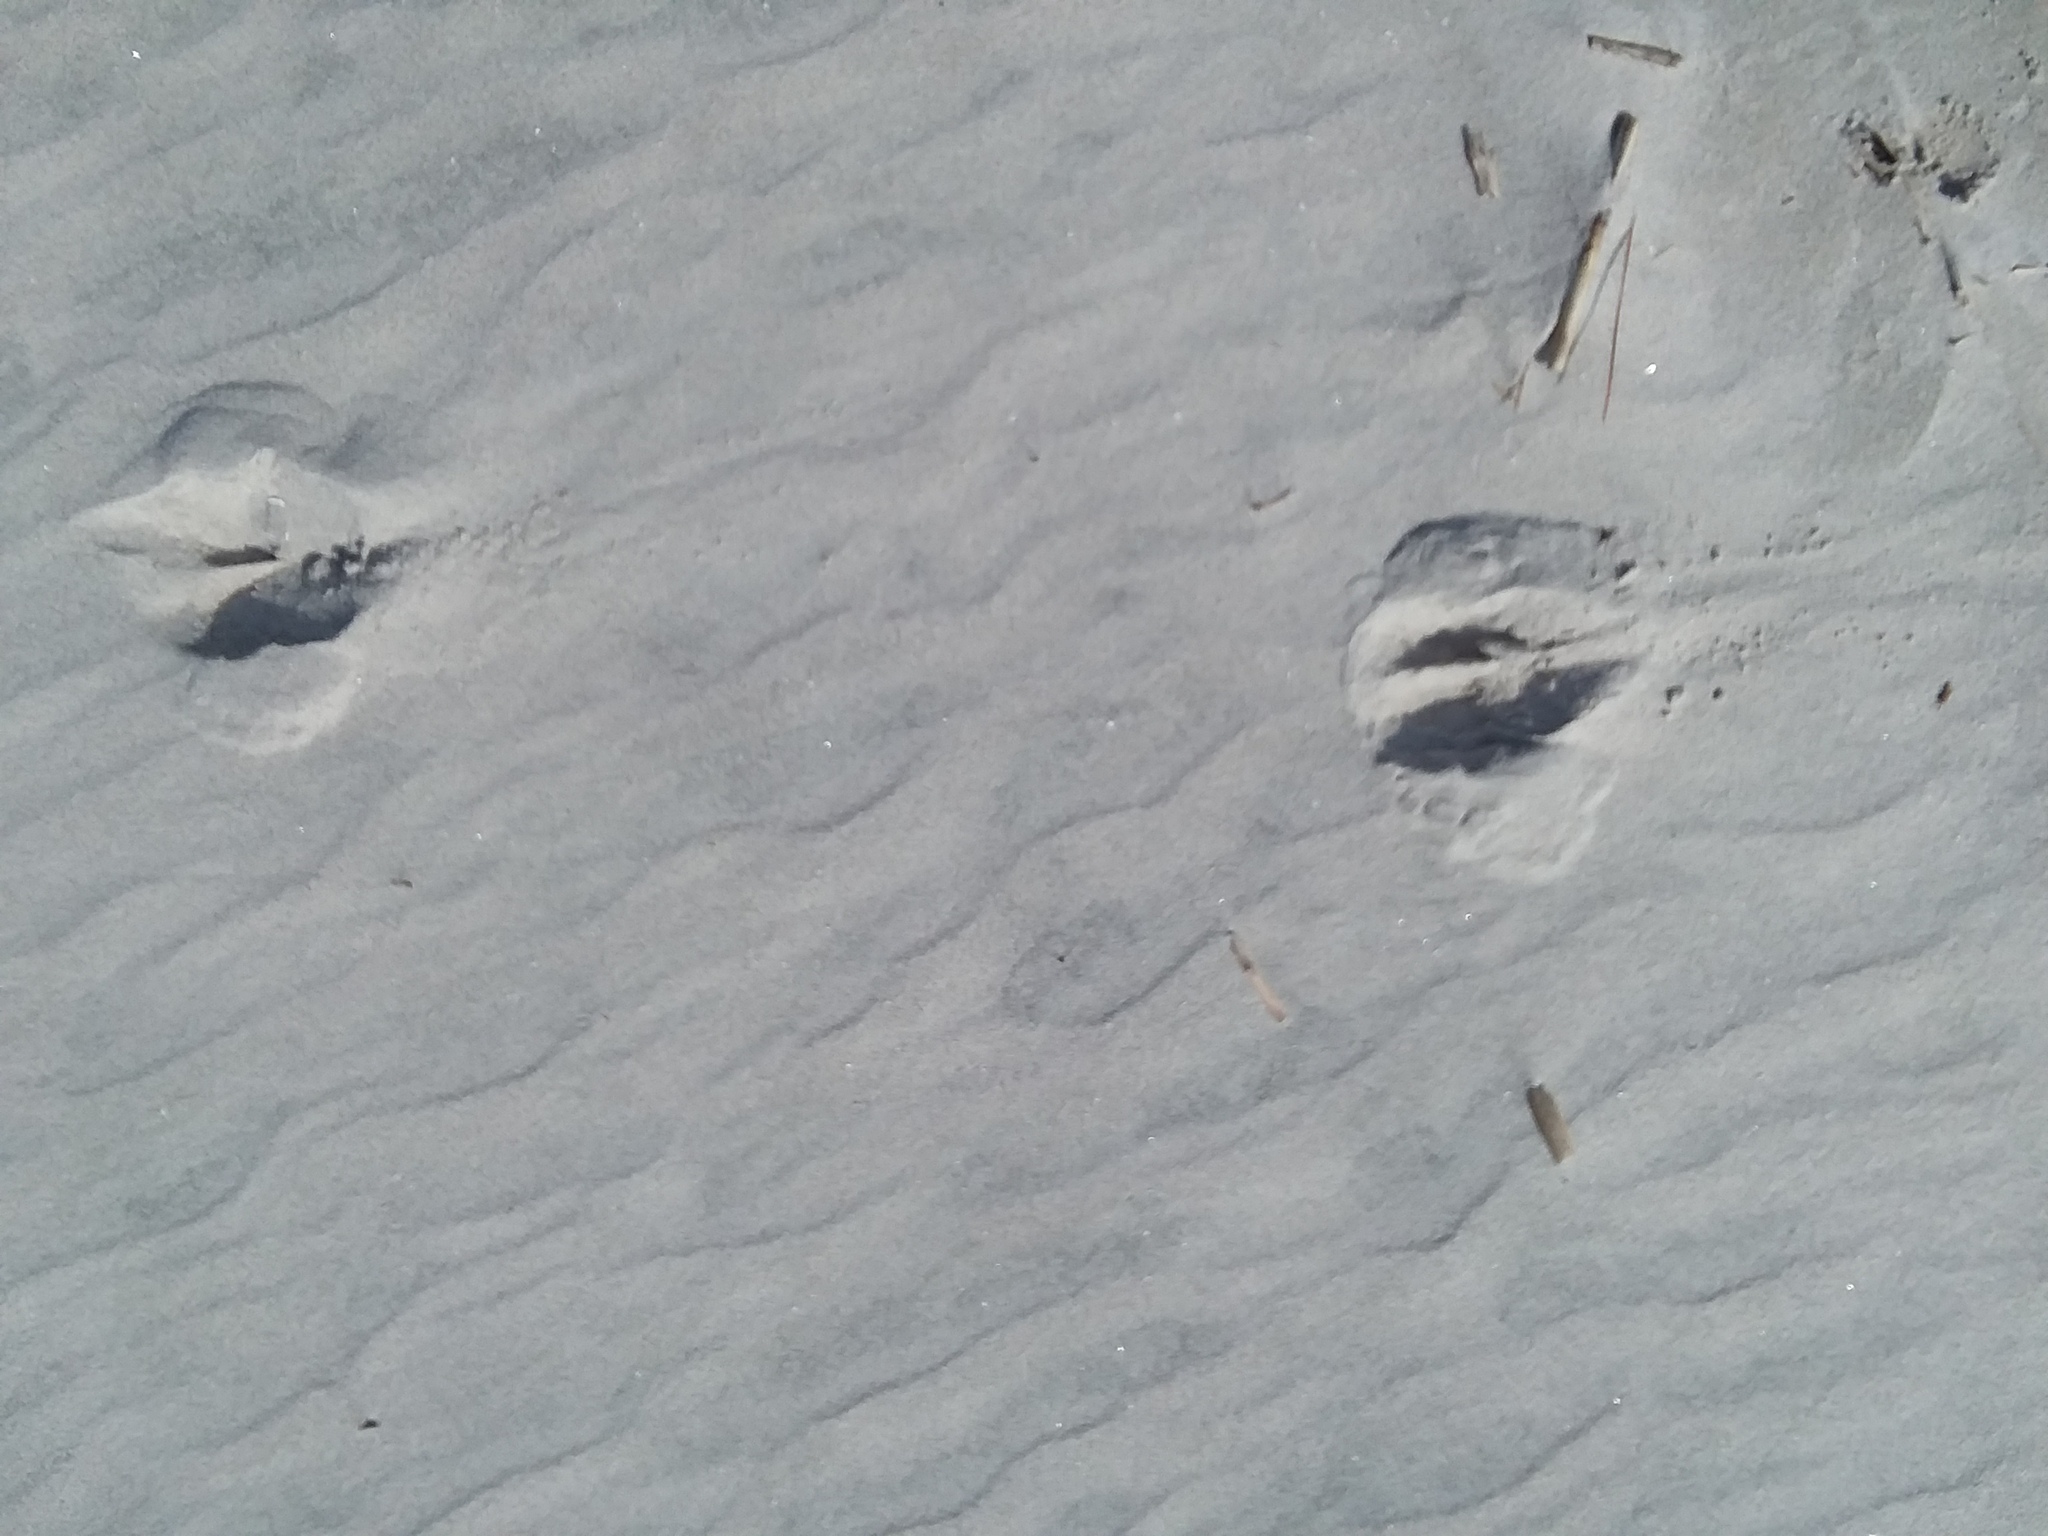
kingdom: Animalia
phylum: Chordata
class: Mammalia
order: Artiodactyla
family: Cervidae
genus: Odocoileus
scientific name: Odocoileus virginianus
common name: White-tailed deer
